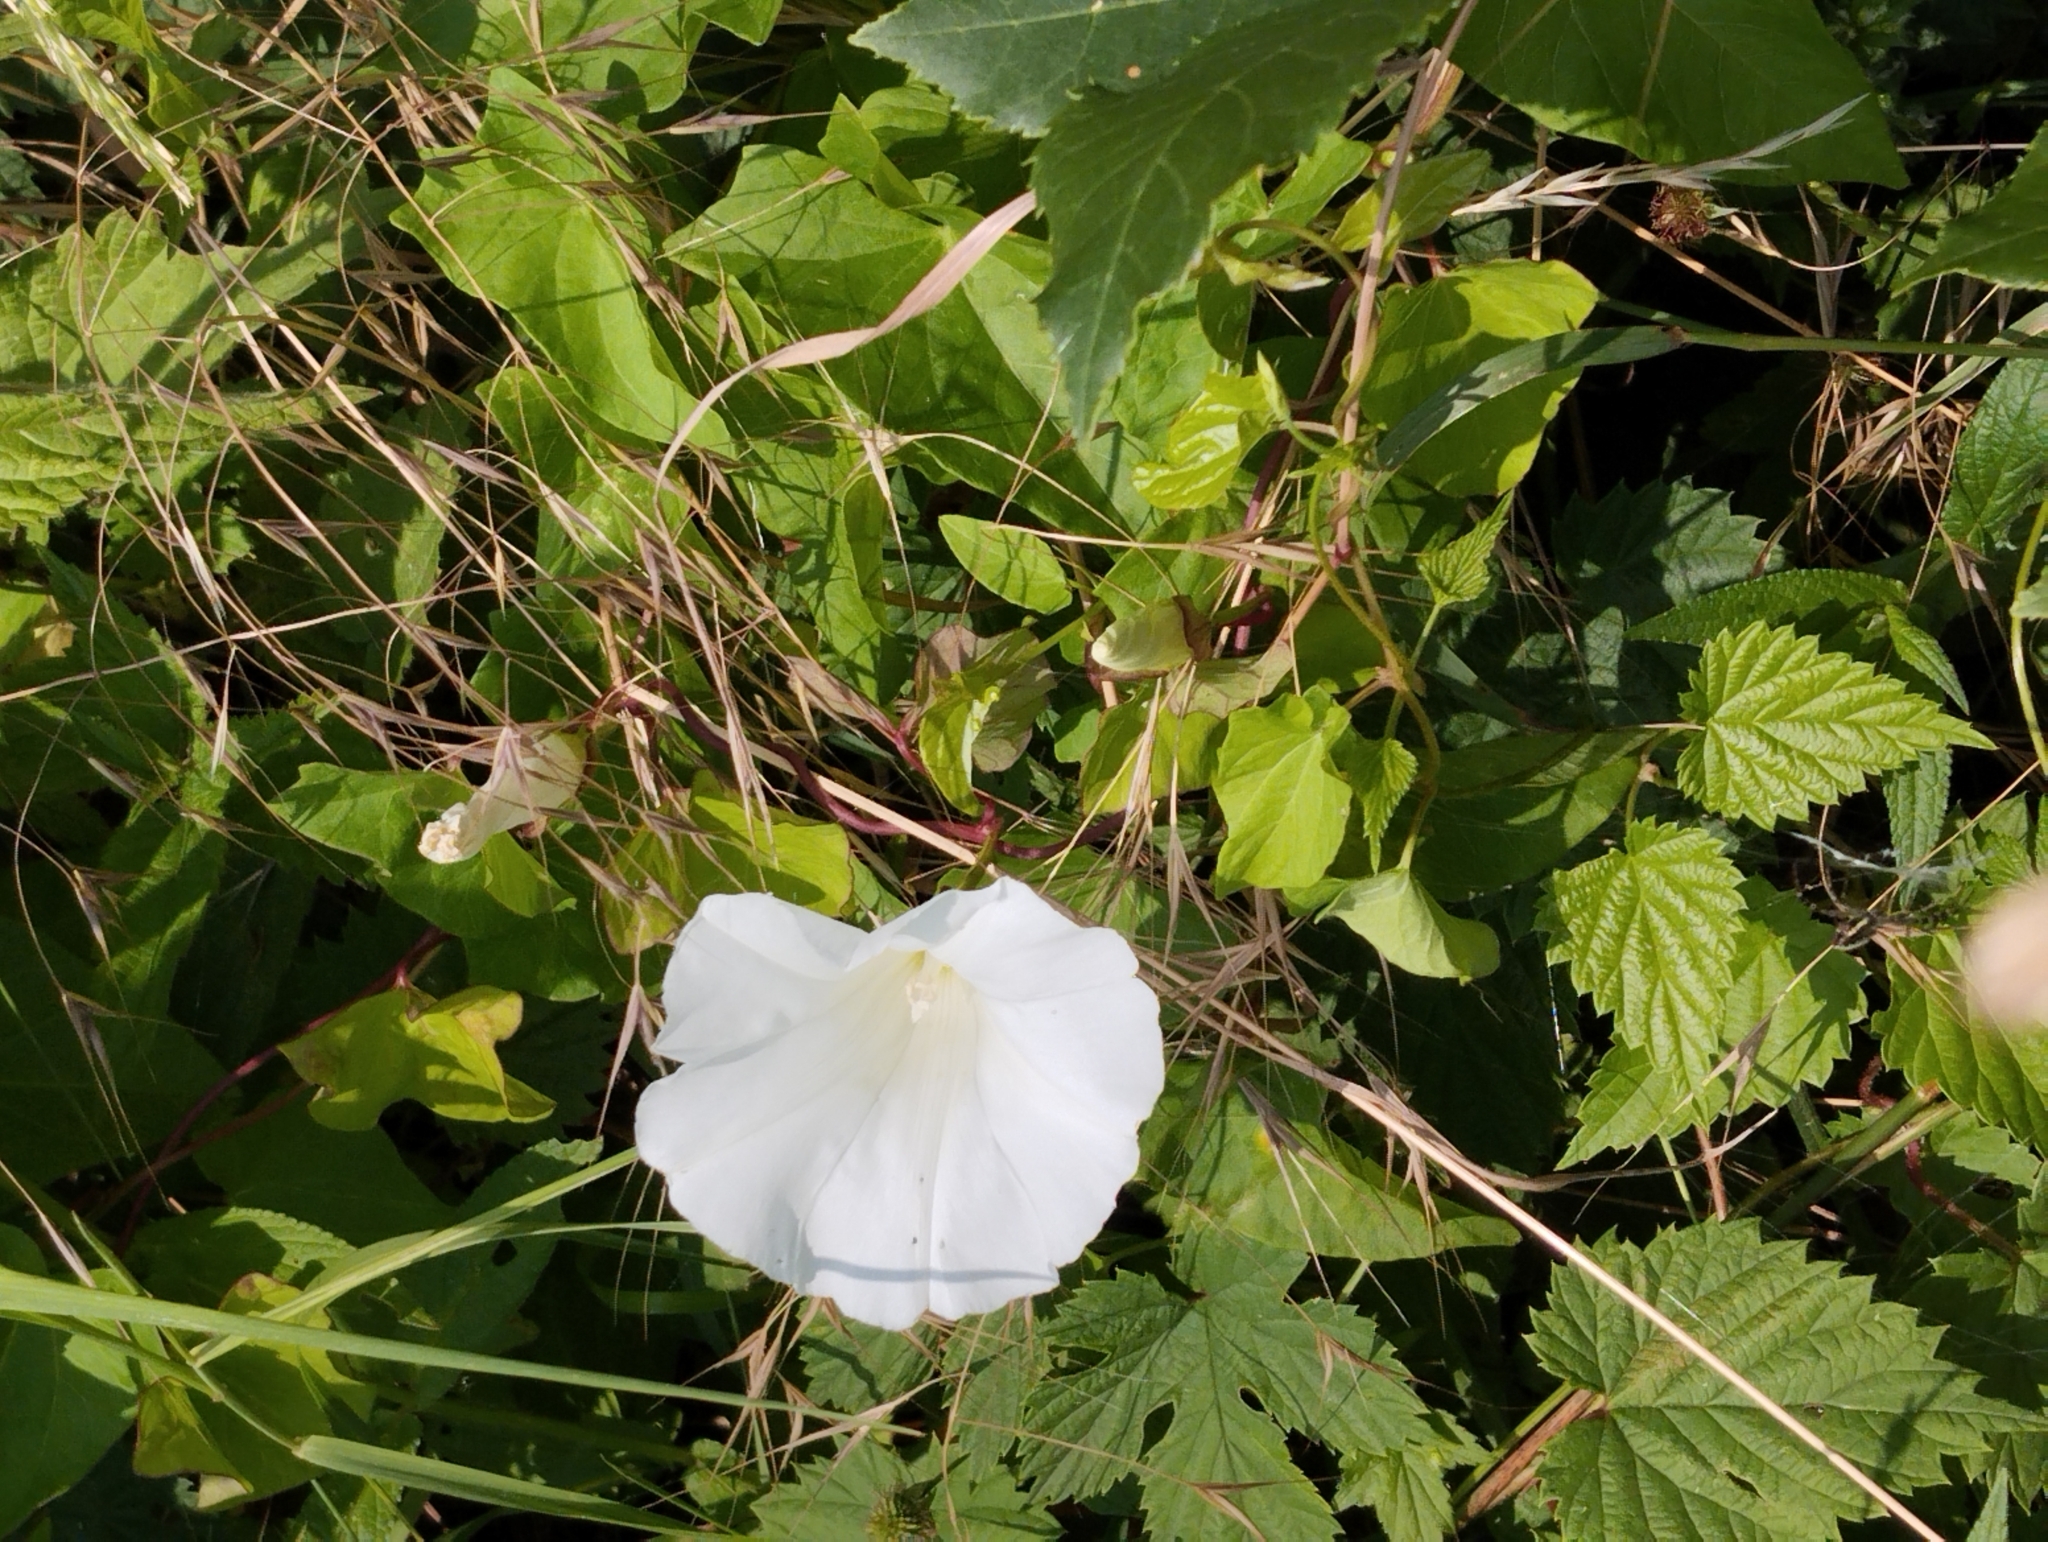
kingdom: Plantae
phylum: Tracheophyta
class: Magnoliopsida
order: Solanales
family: Convolvulaceae
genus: Calystegia
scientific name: Calystegia sepium
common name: Hedge bindweed
